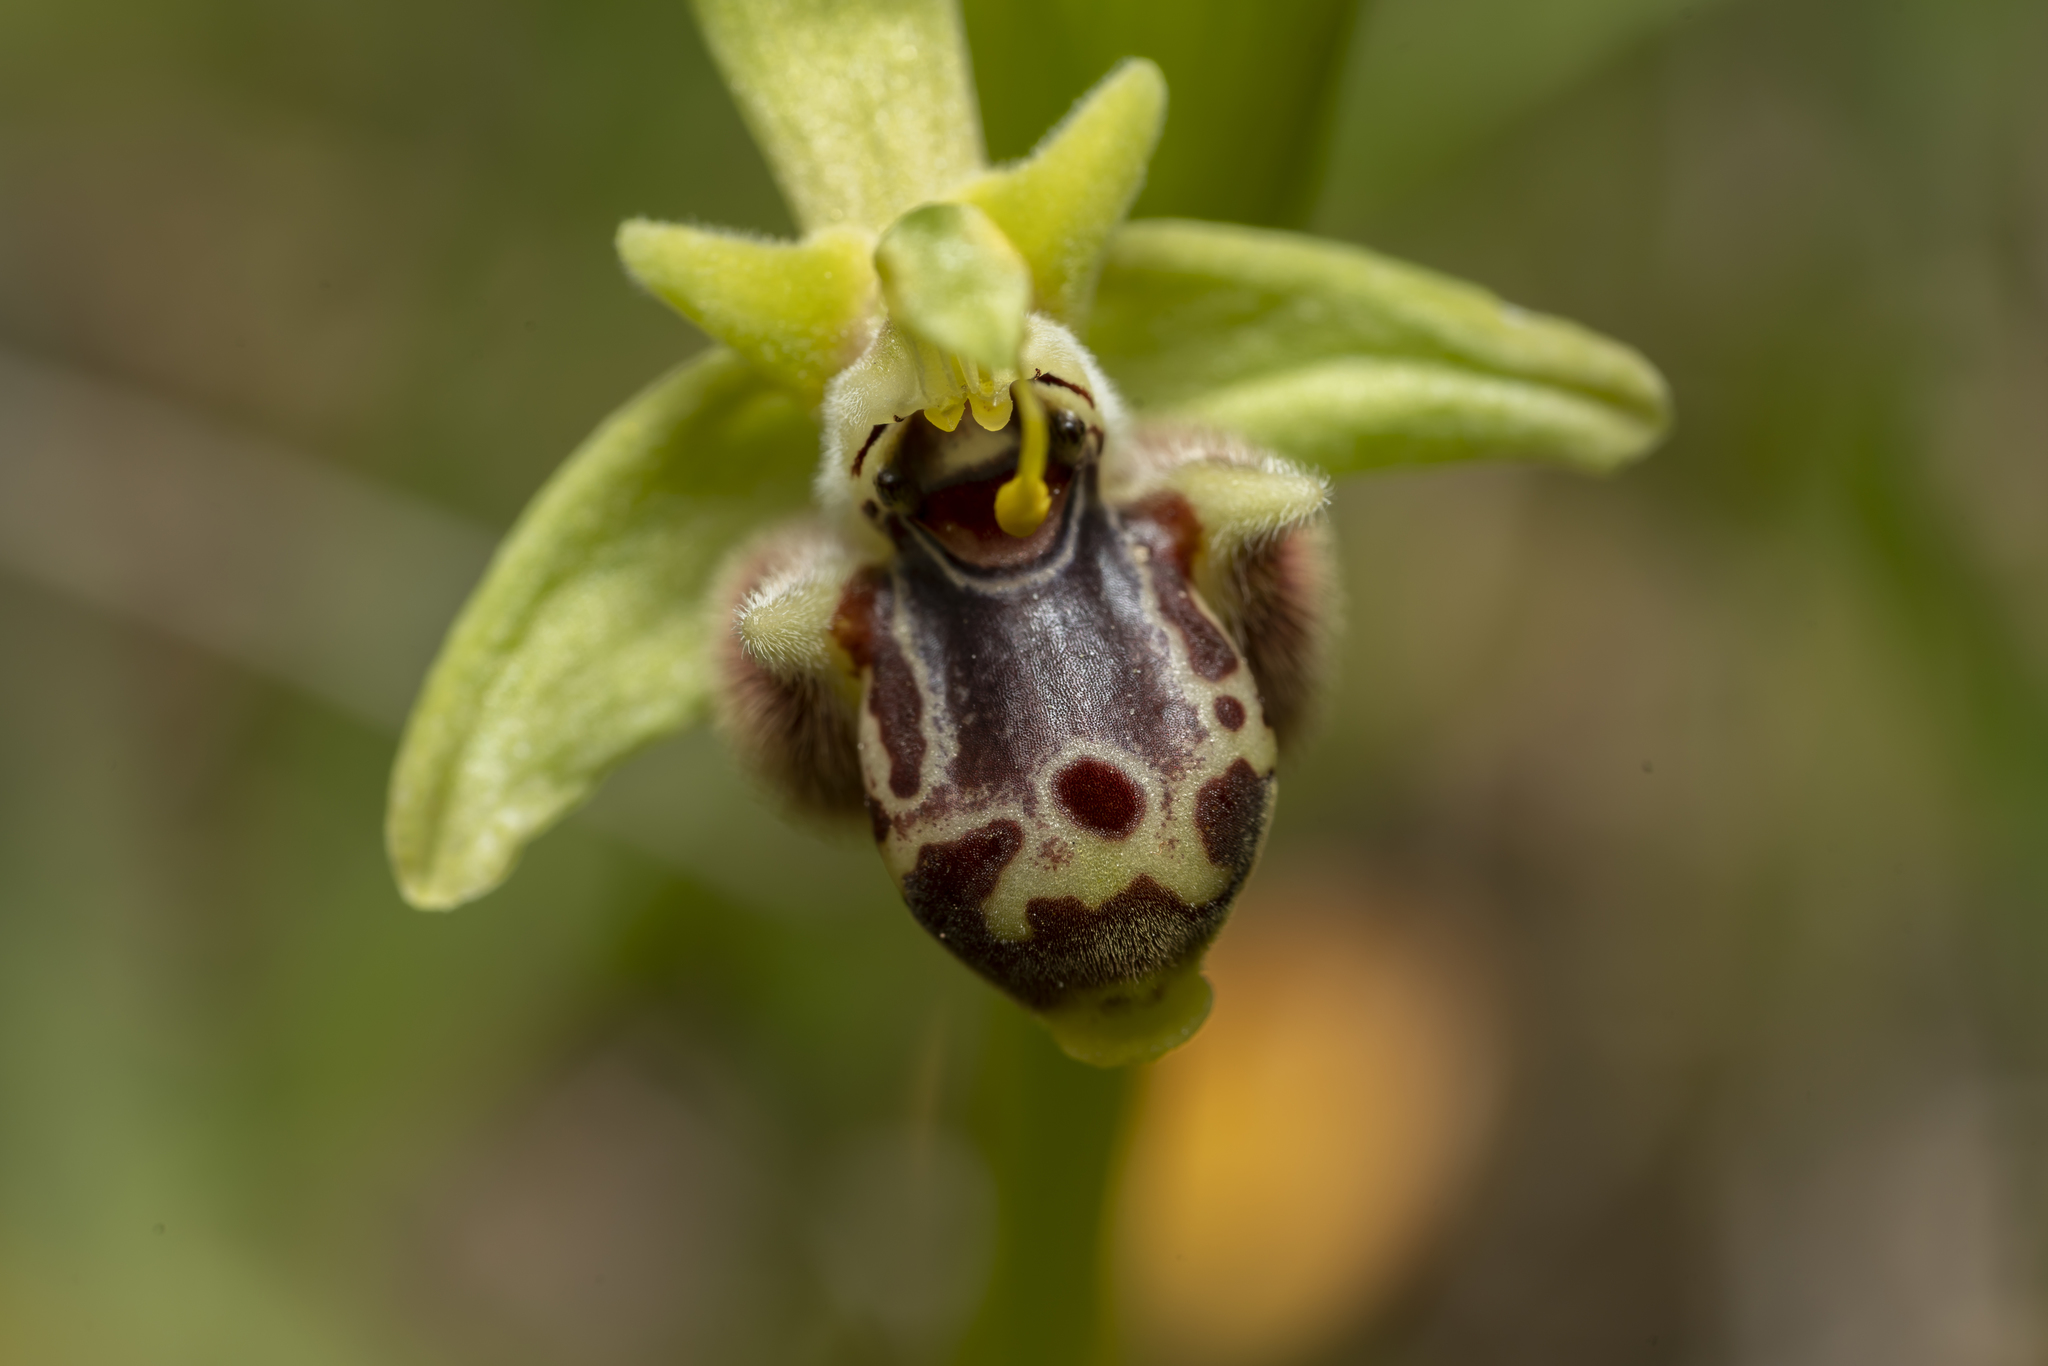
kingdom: Plantae
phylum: Tracheophyta
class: Liliopsida
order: Asparagales
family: Orchidaceae
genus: Ophrys
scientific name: Ophrys scolopax
